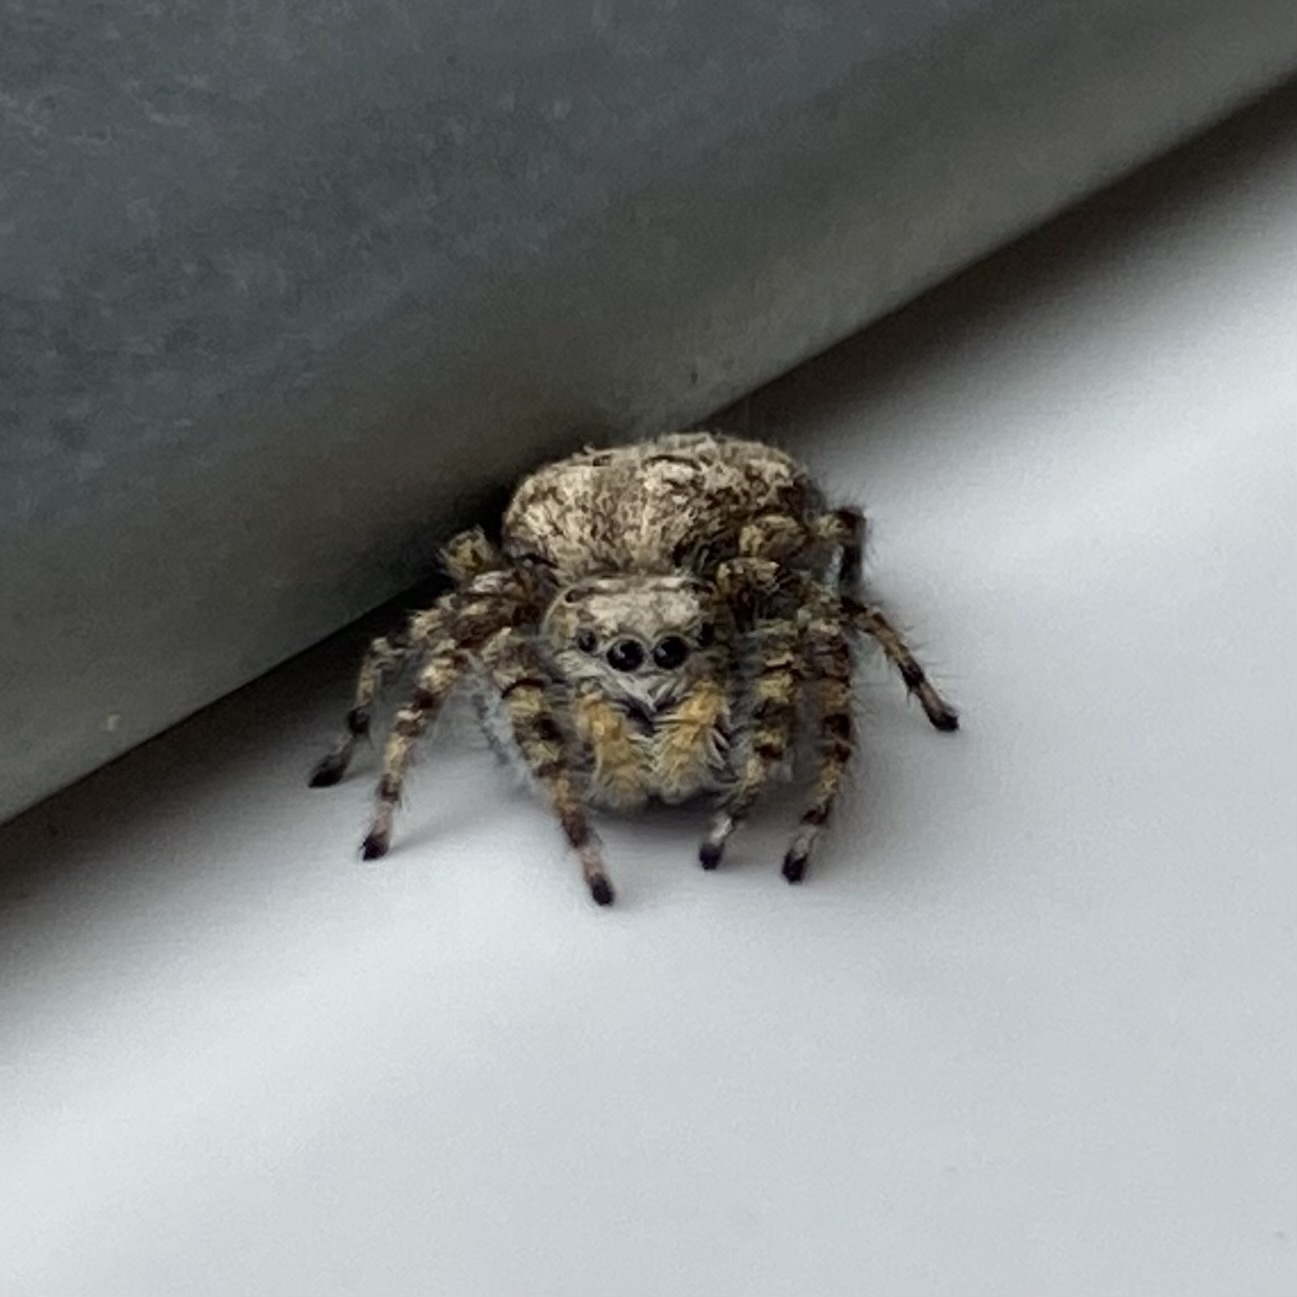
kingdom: Animalia
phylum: Arthropoda
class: Arachnida
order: Araneae
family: Salticidae
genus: Terralonus
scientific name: Terralonus californicus
